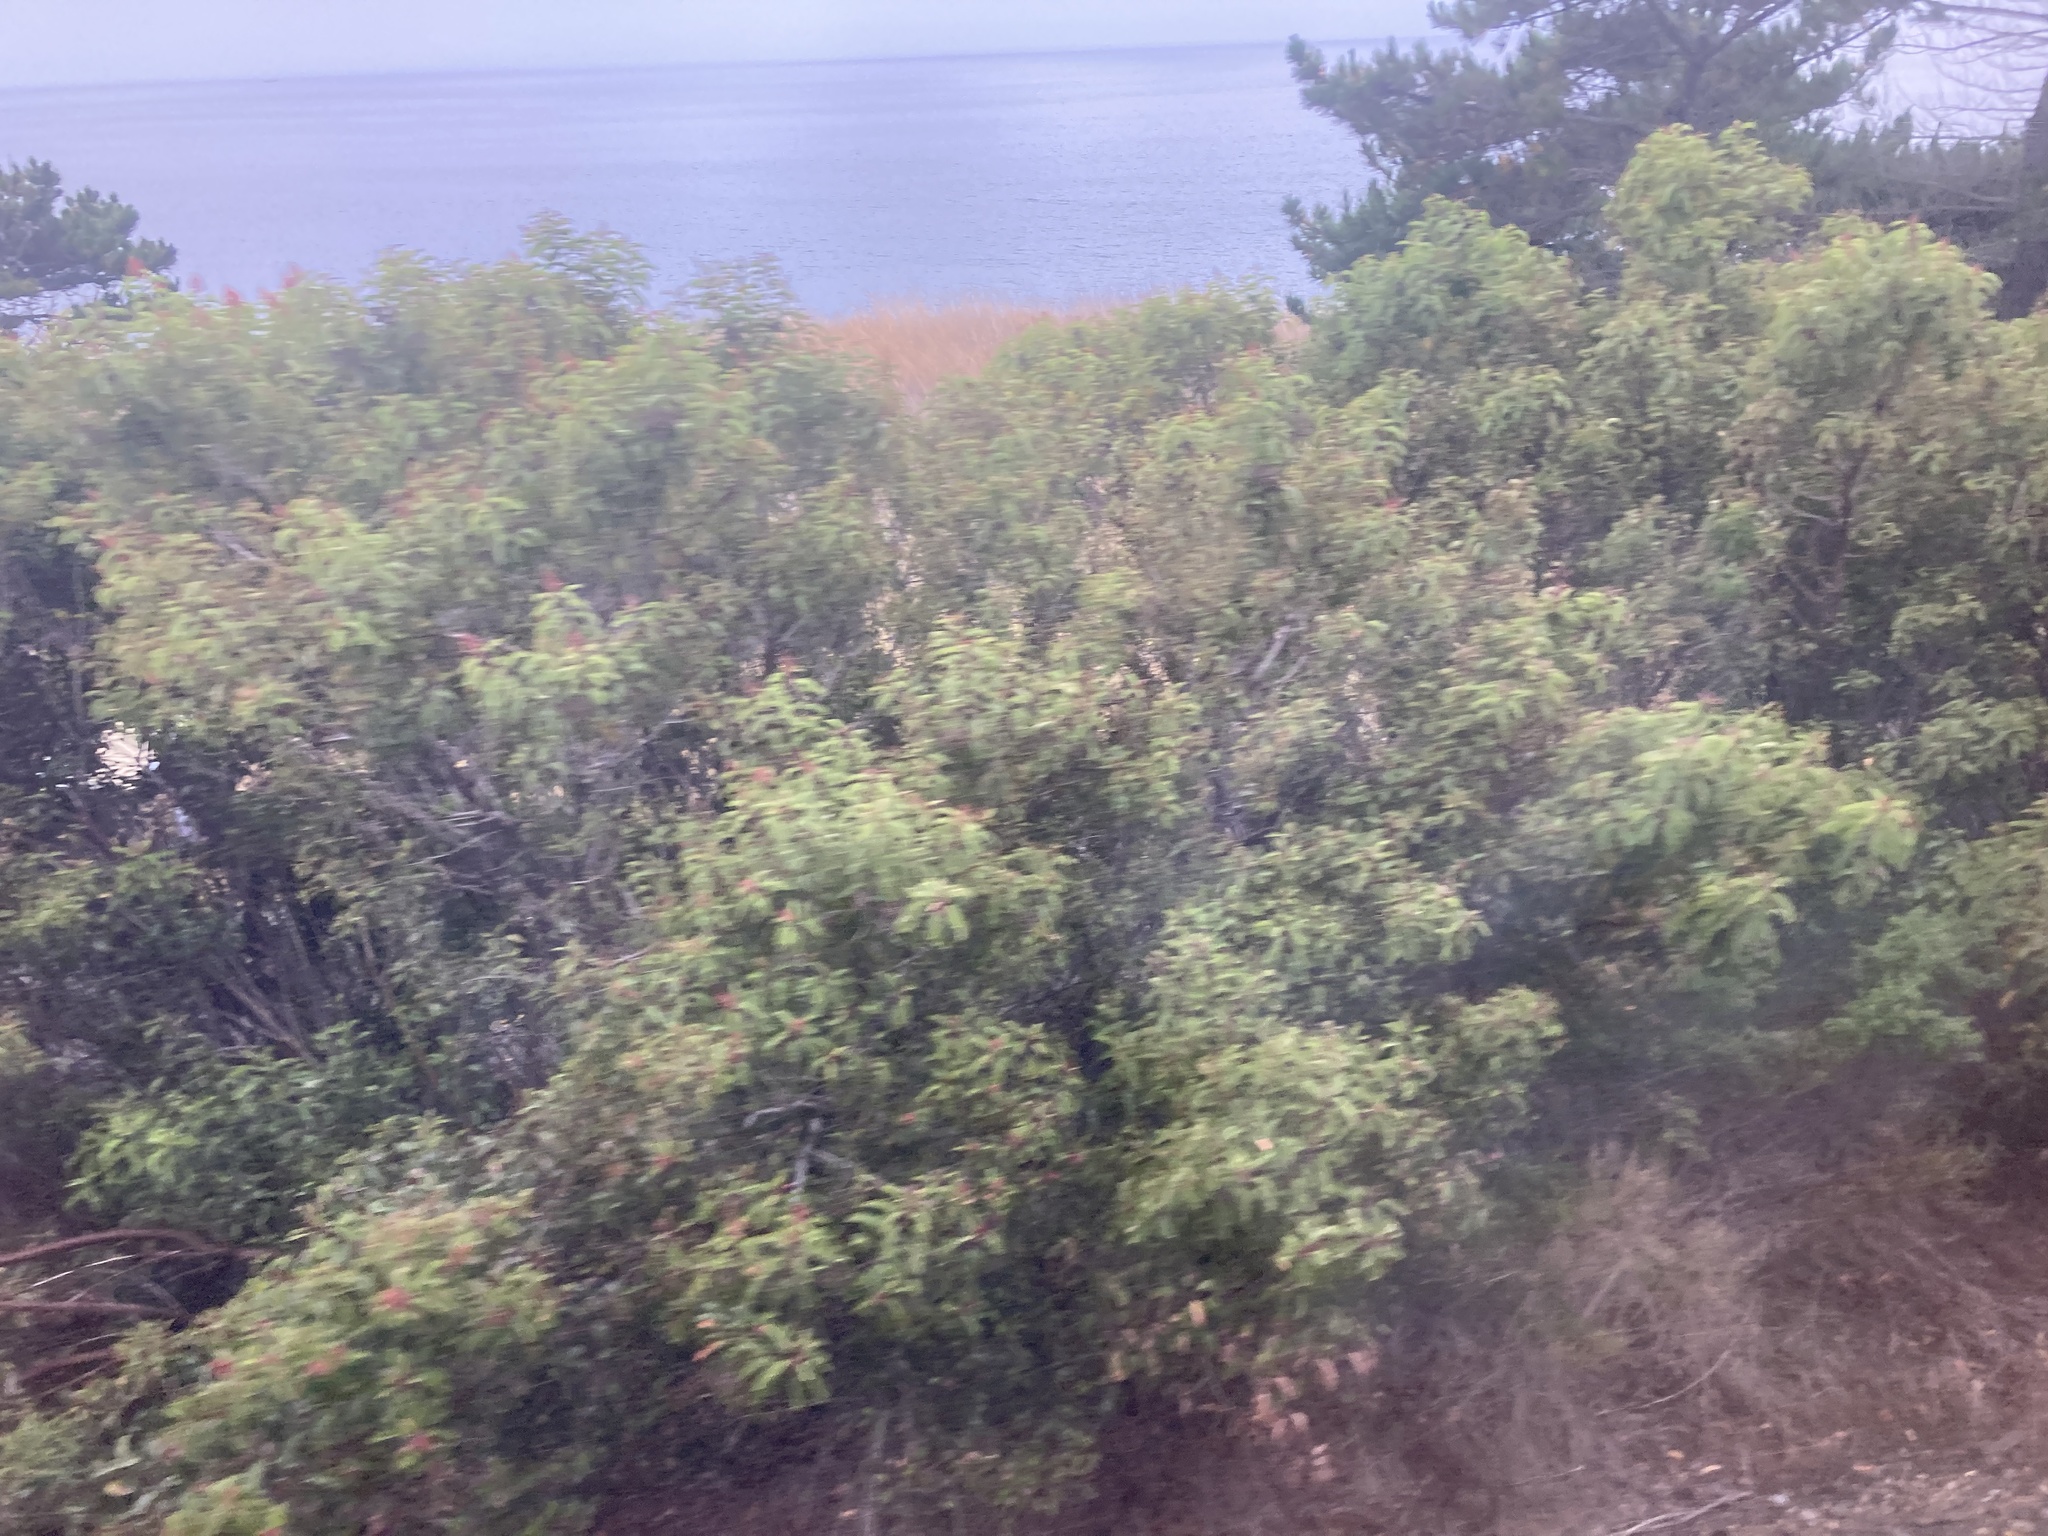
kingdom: Plantae
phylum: Tracheophyta
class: Magnoliopsida
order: Sapindales
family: Anacardiaceae
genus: Malosma
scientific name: Malosma laurina
